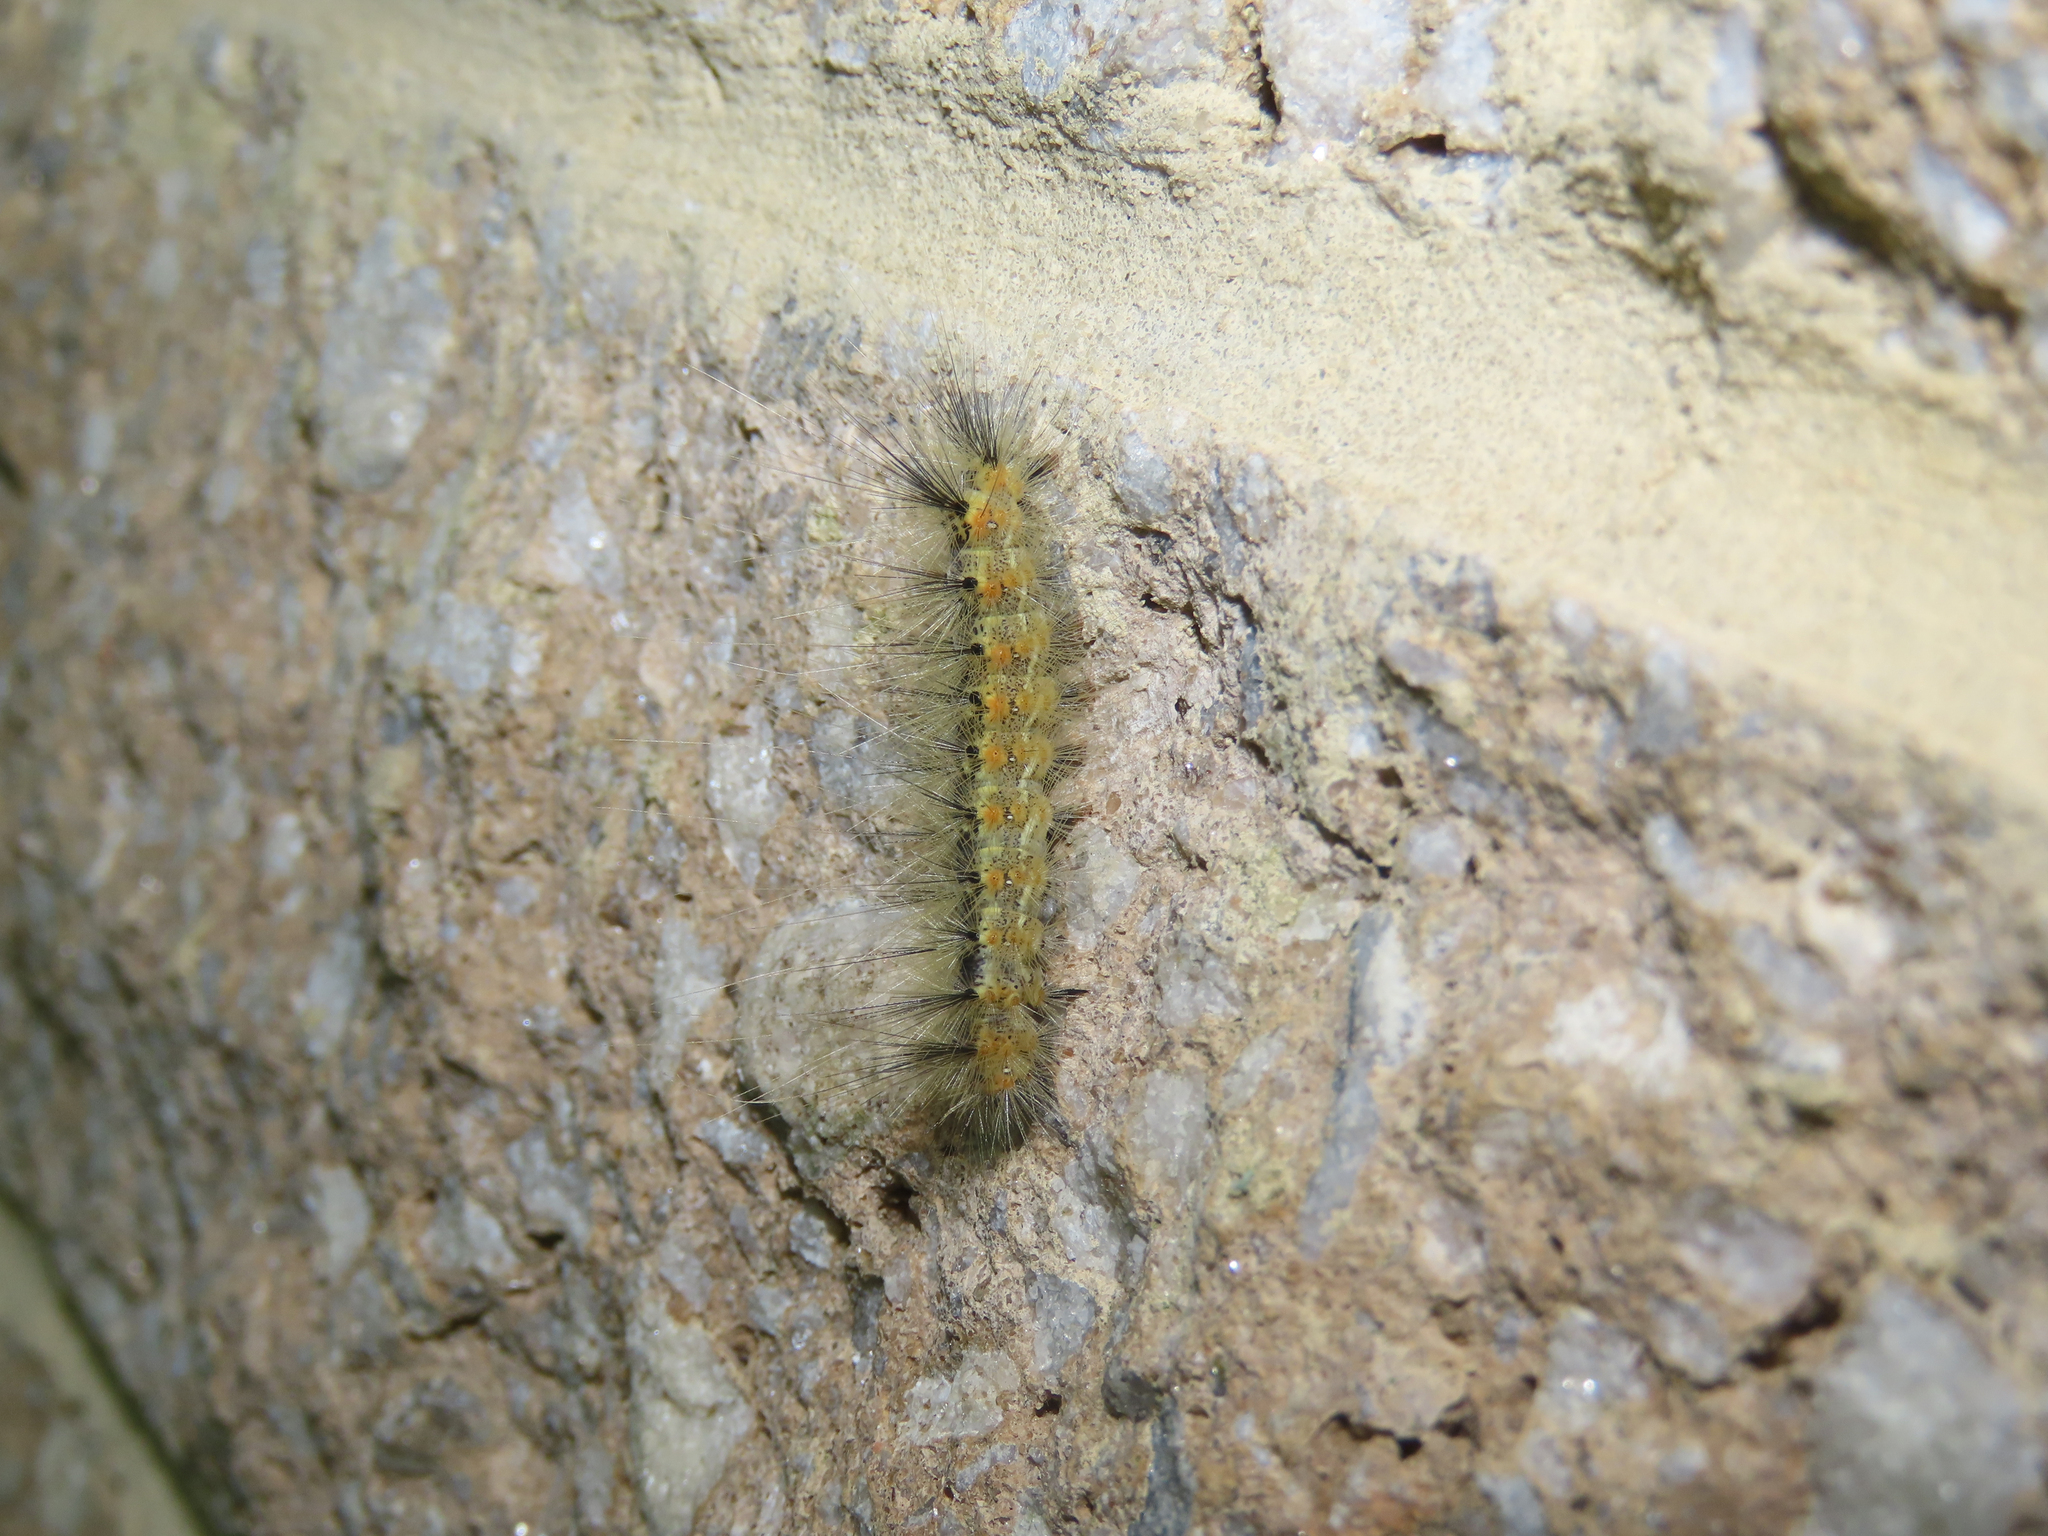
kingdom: Animalia
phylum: Arthropoda
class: Insecta
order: Lepidoptera
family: Erebidae
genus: Hyphantria
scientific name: Hyphantria cunea
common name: American white moth
